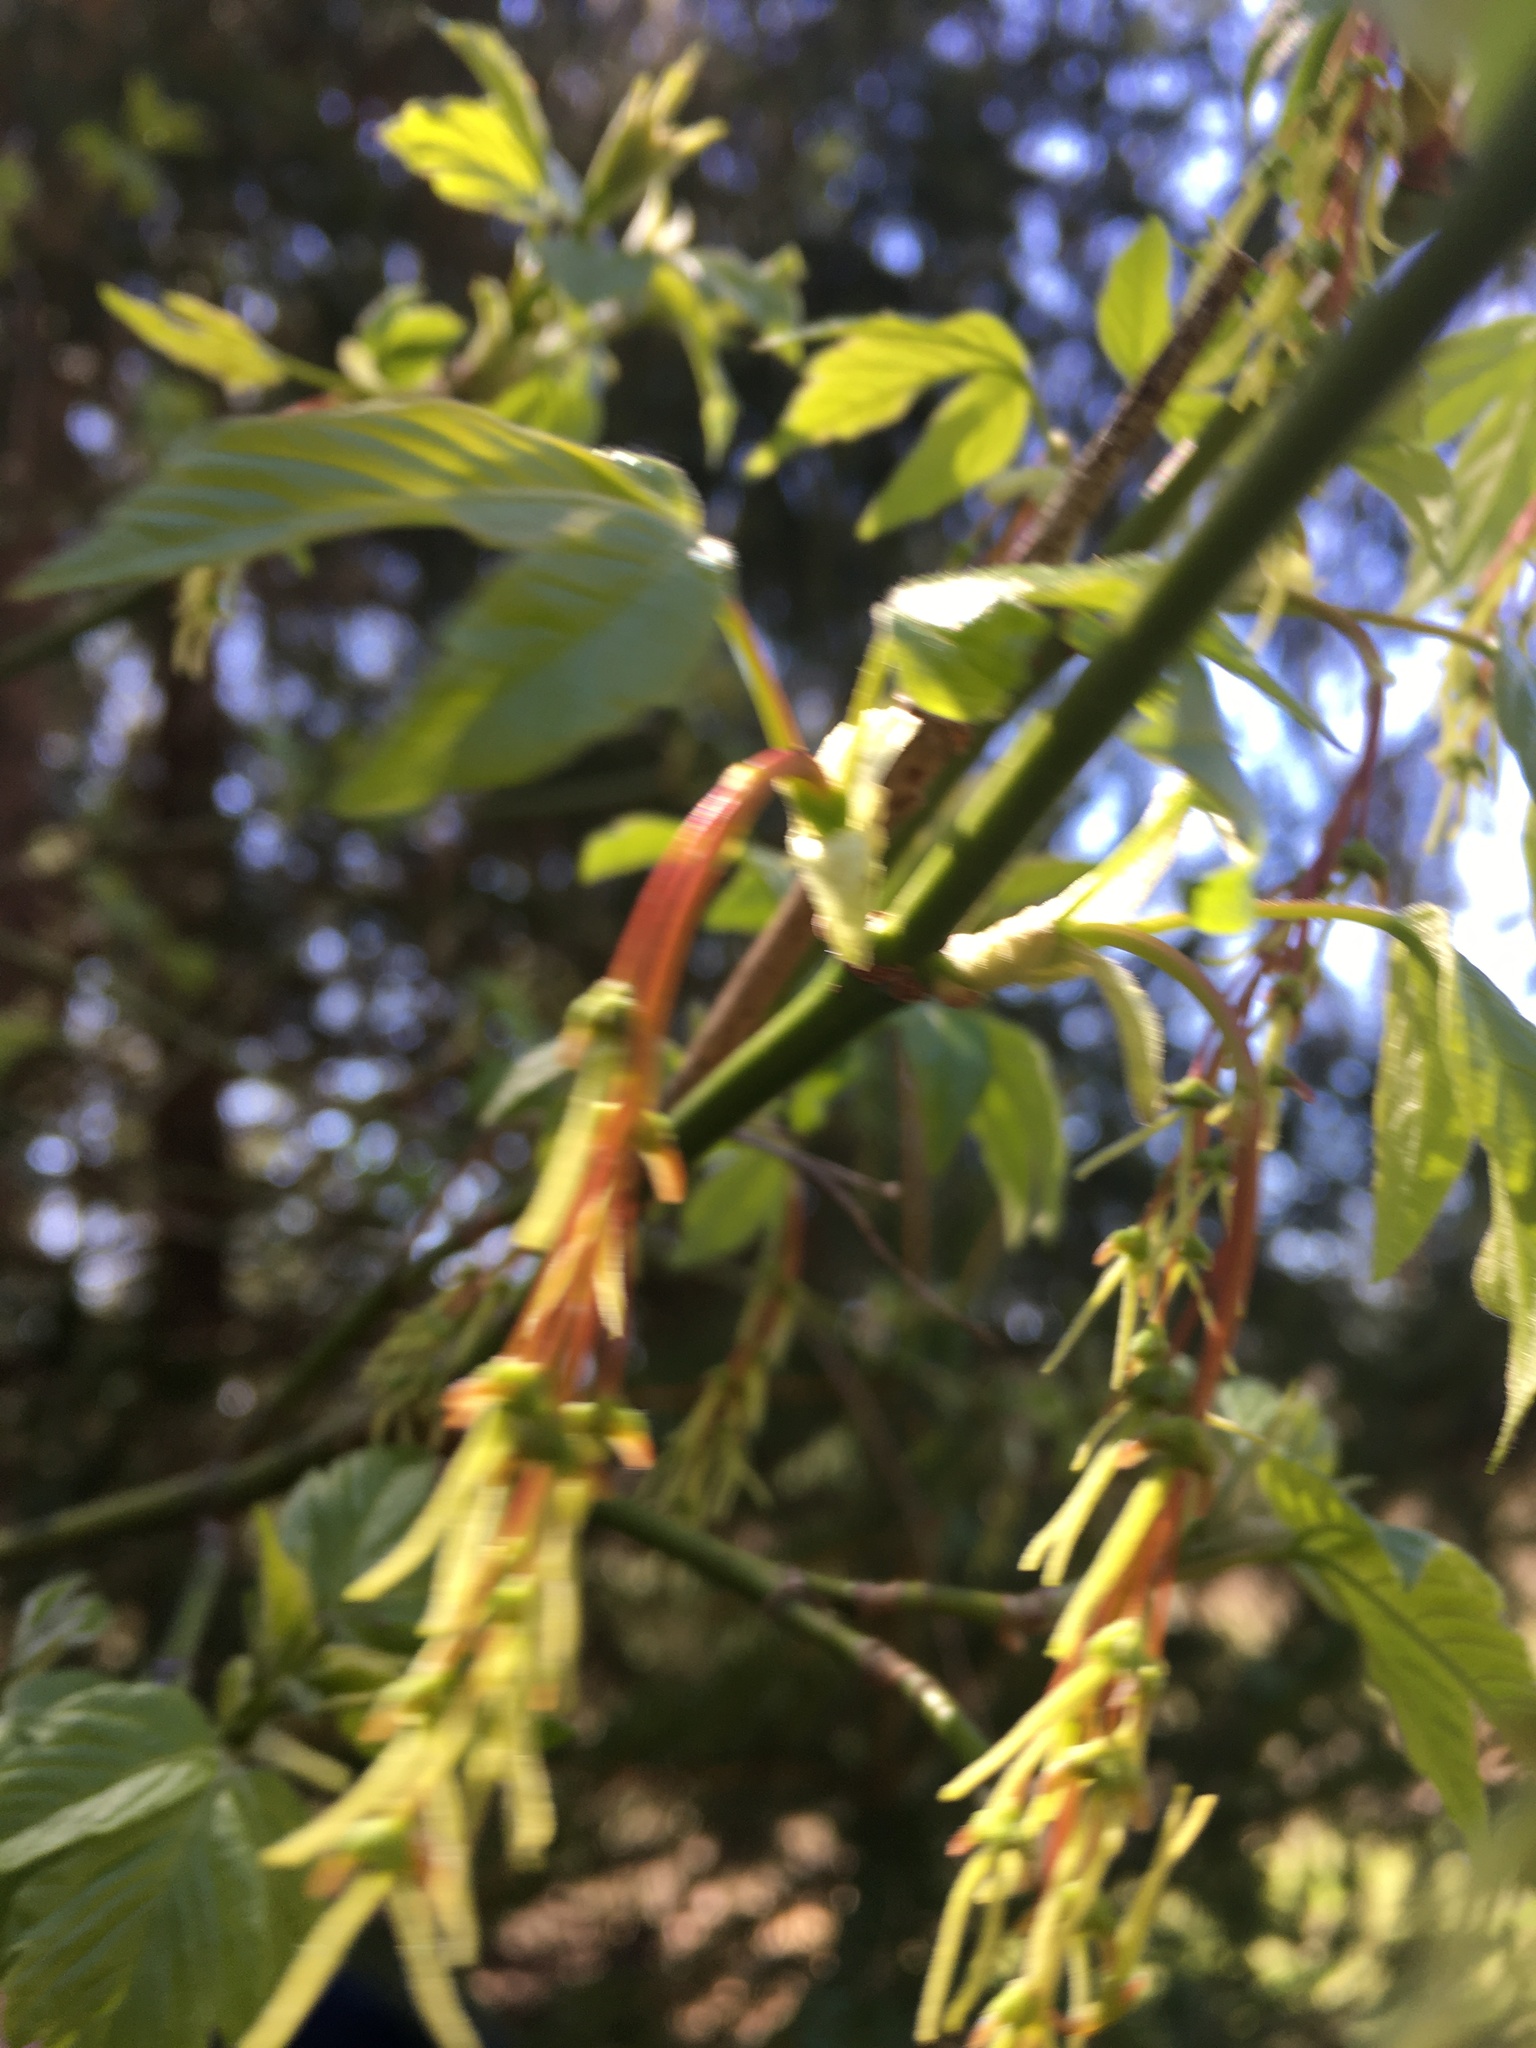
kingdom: Plantae
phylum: Tracheophyta
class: Magnoliopsida
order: Sapindales
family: Sapindaceae
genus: Acer
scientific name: Acer negundo
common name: Ashleaf maple
